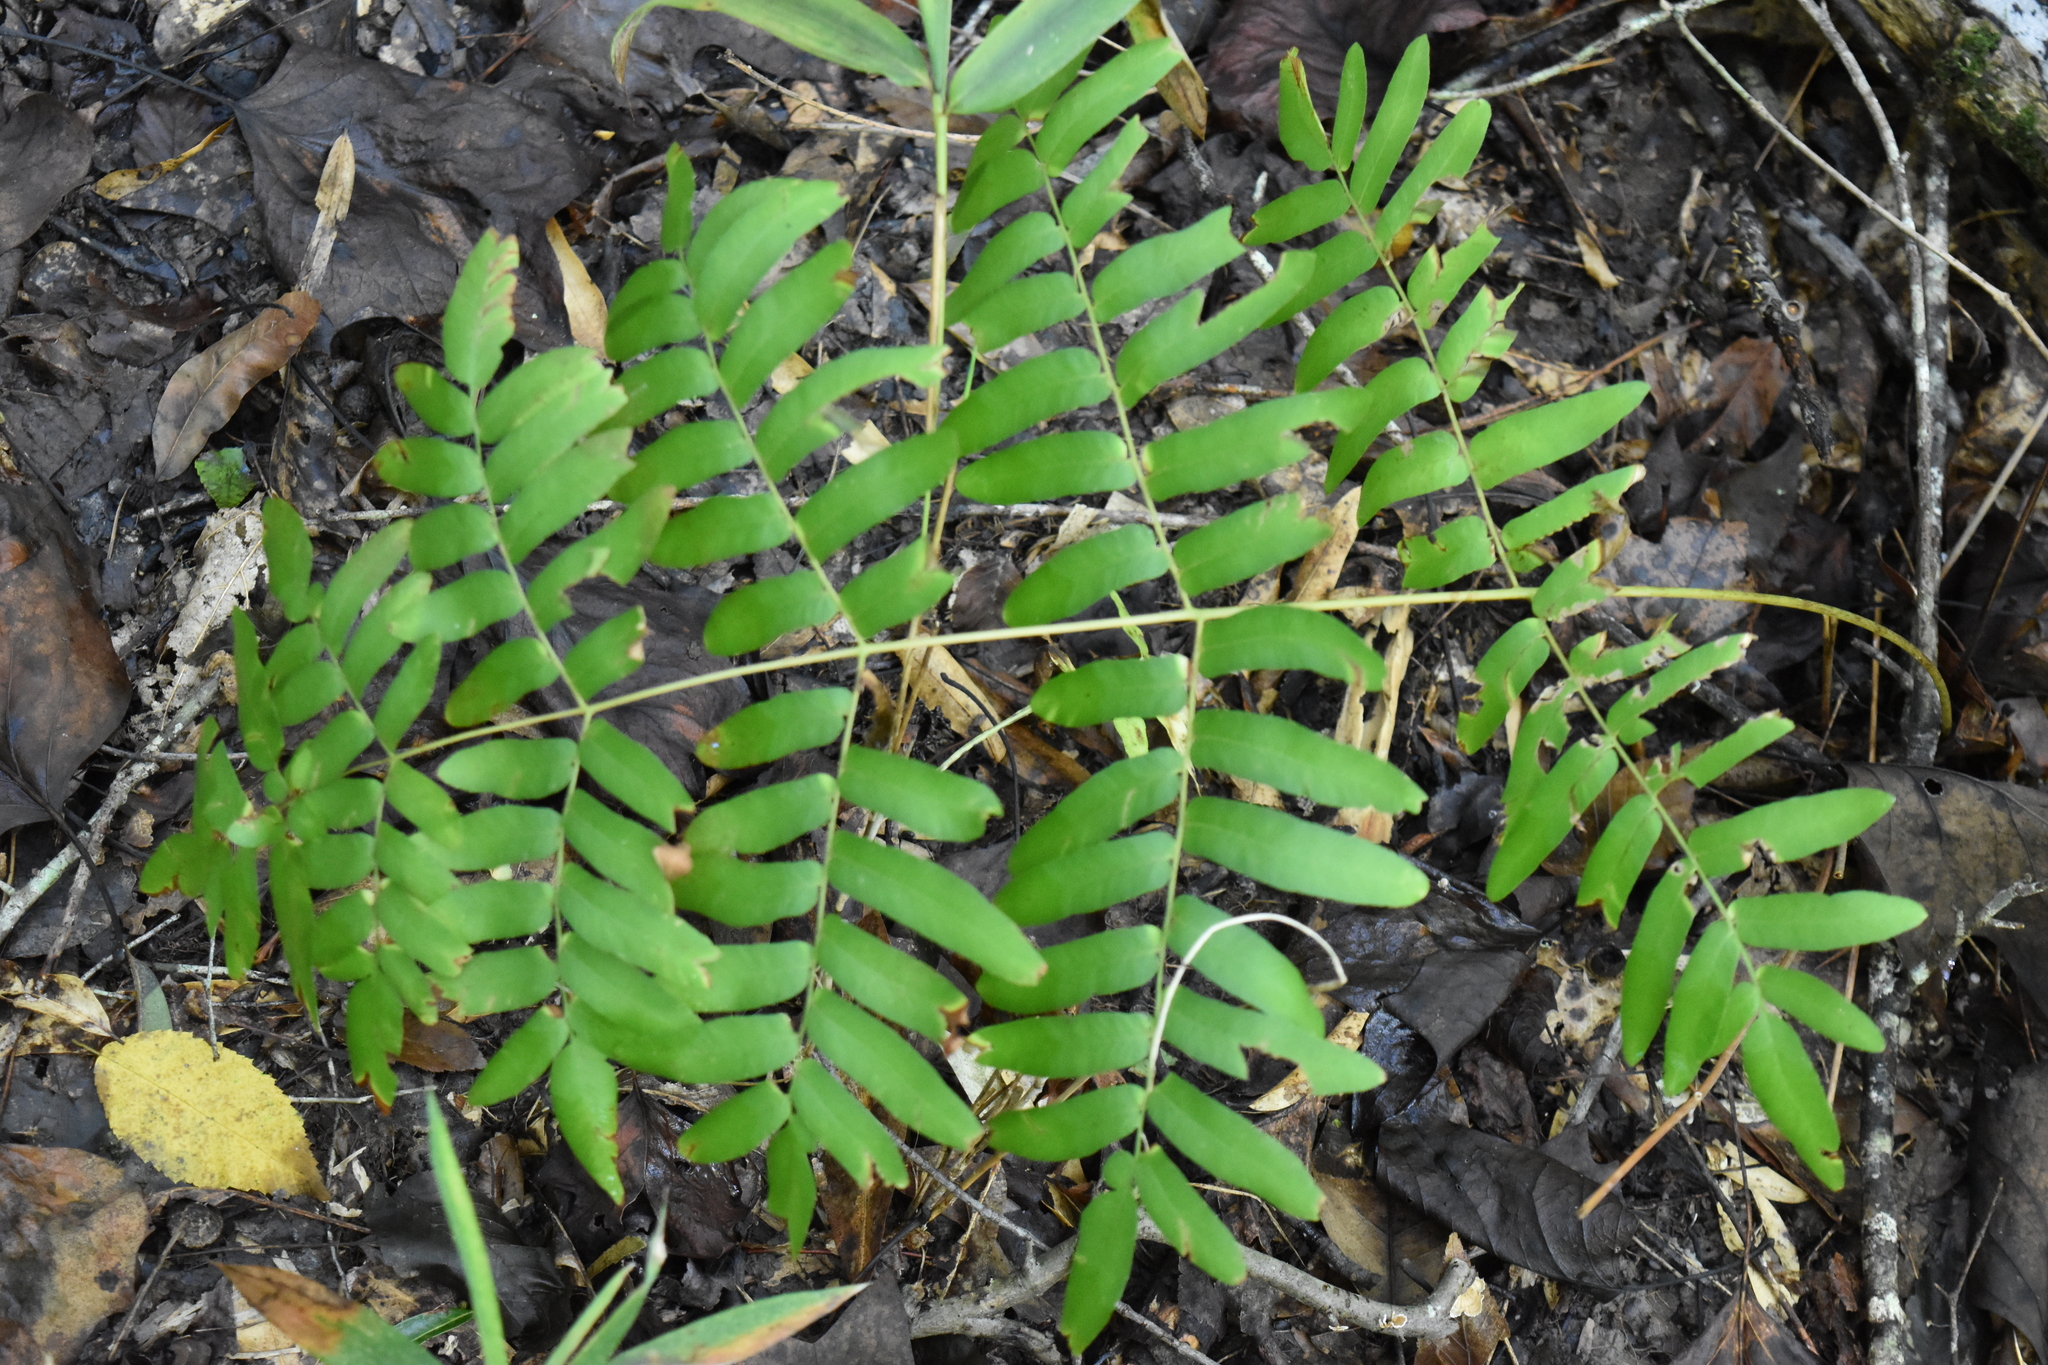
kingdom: Plantae
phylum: Tracheophyta
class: Polypodiopsida
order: Osmundales
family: Osmundaceae
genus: Osmunda
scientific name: Osmunda spectabilis
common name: American royal fern
